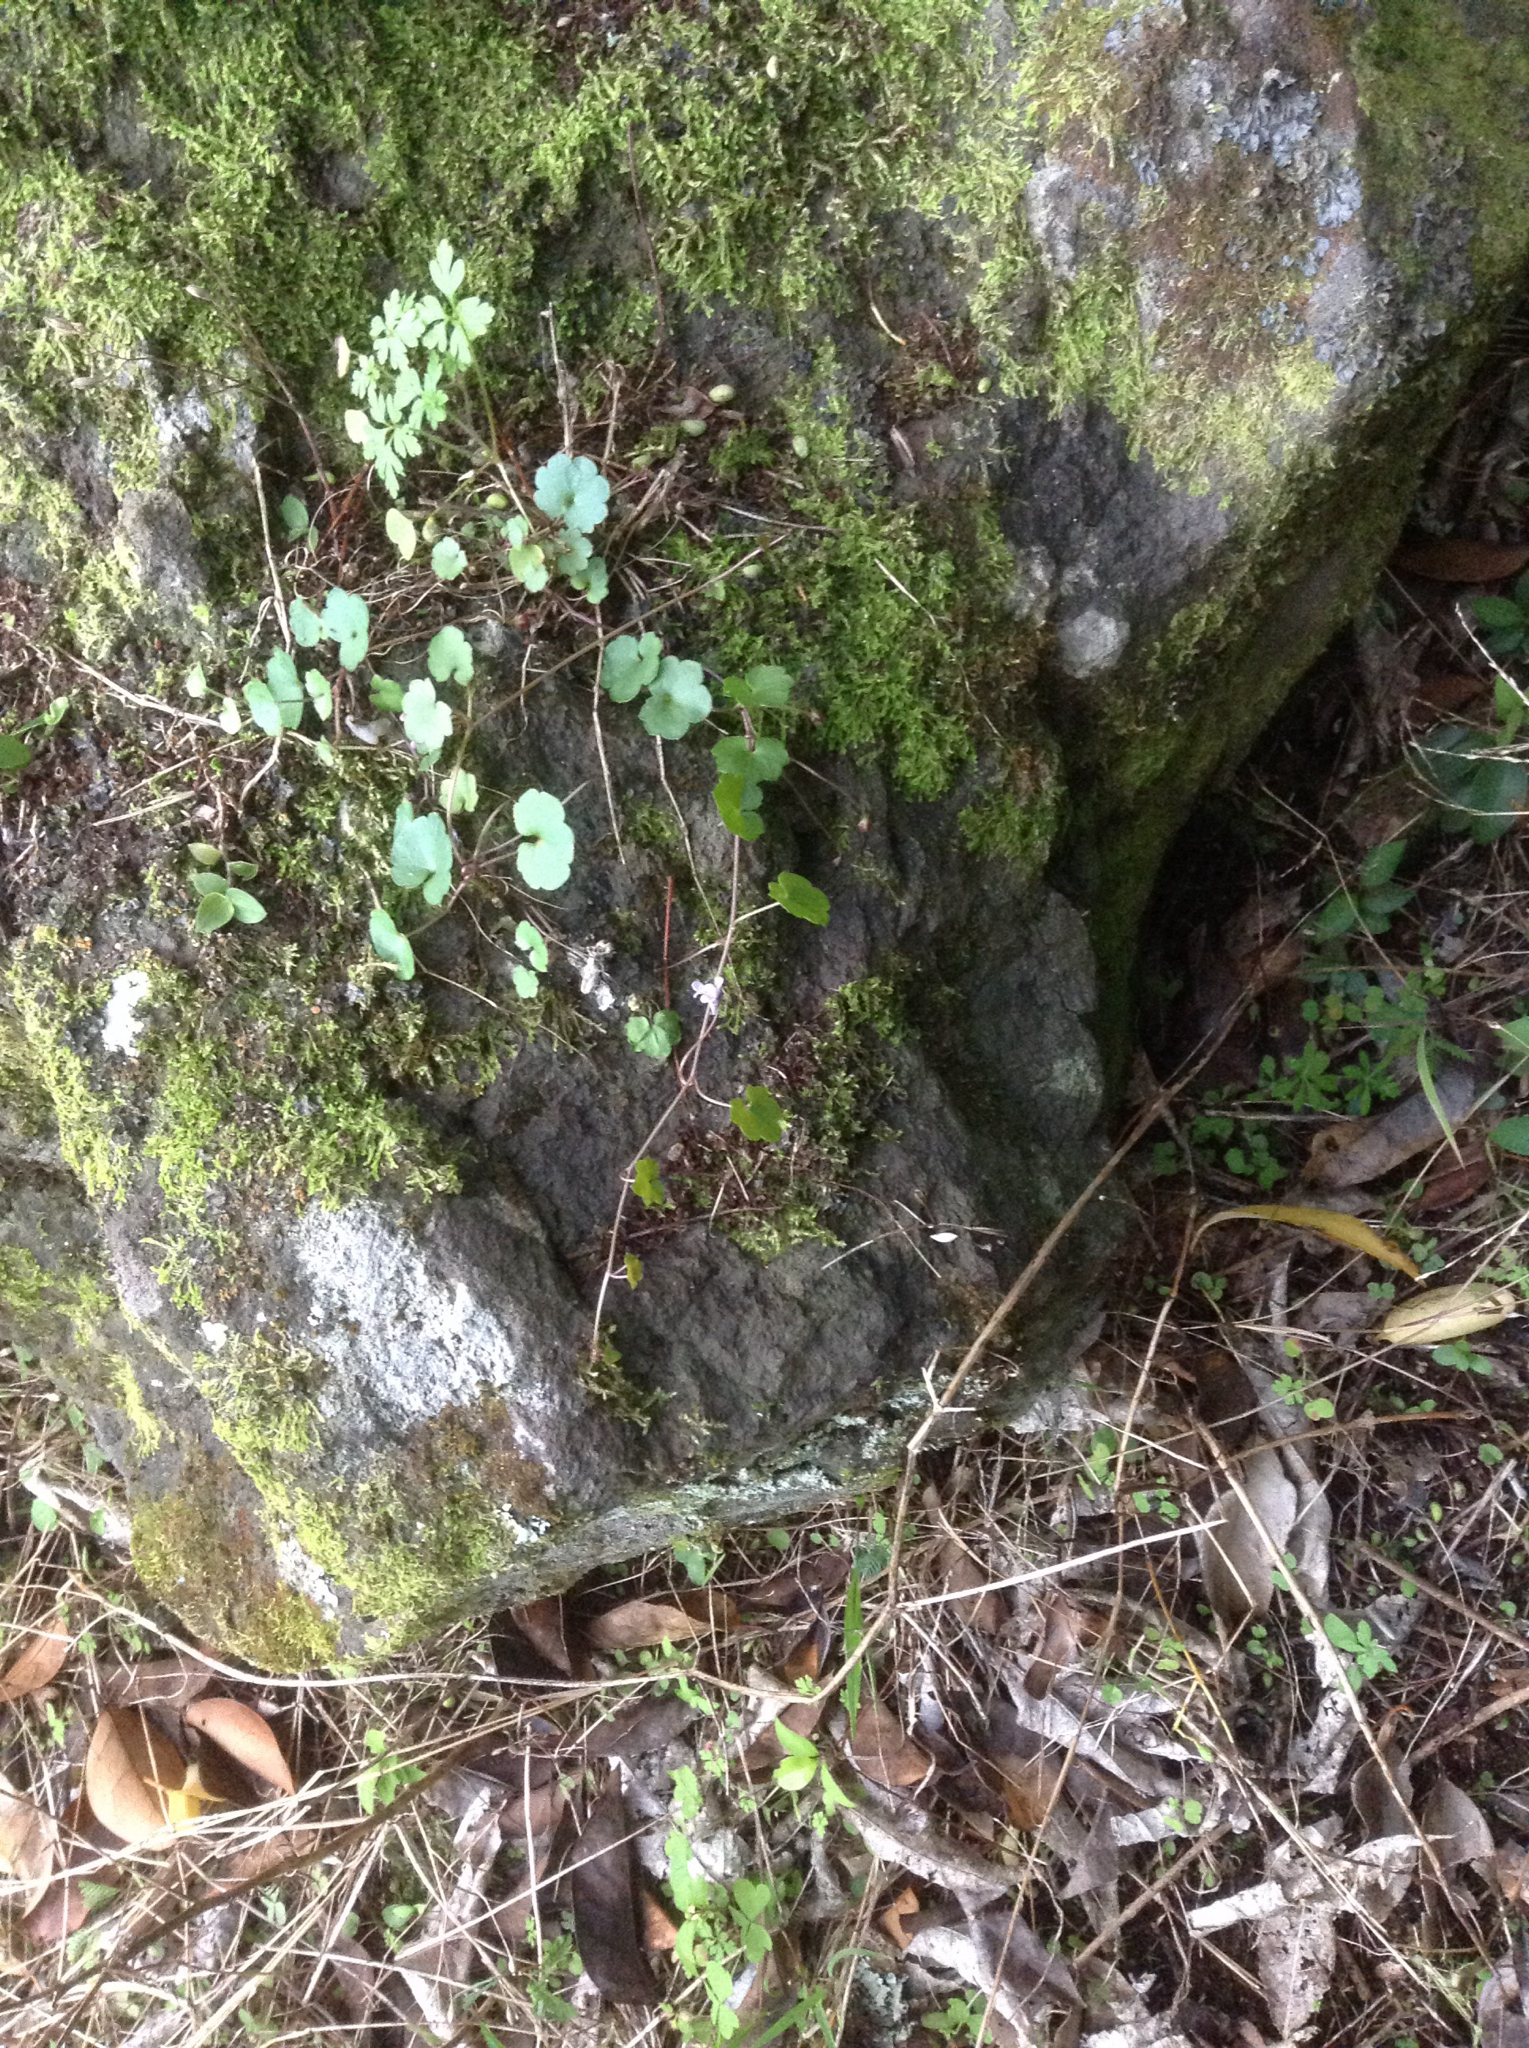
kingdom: Plantae
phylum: Tracheophyta
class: Magnoliopsida
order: Lamiales
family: Plantaginaceae
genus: Cymbalaria
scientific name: Cymbalaria muralis
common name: Ivy-leaved toadflax
